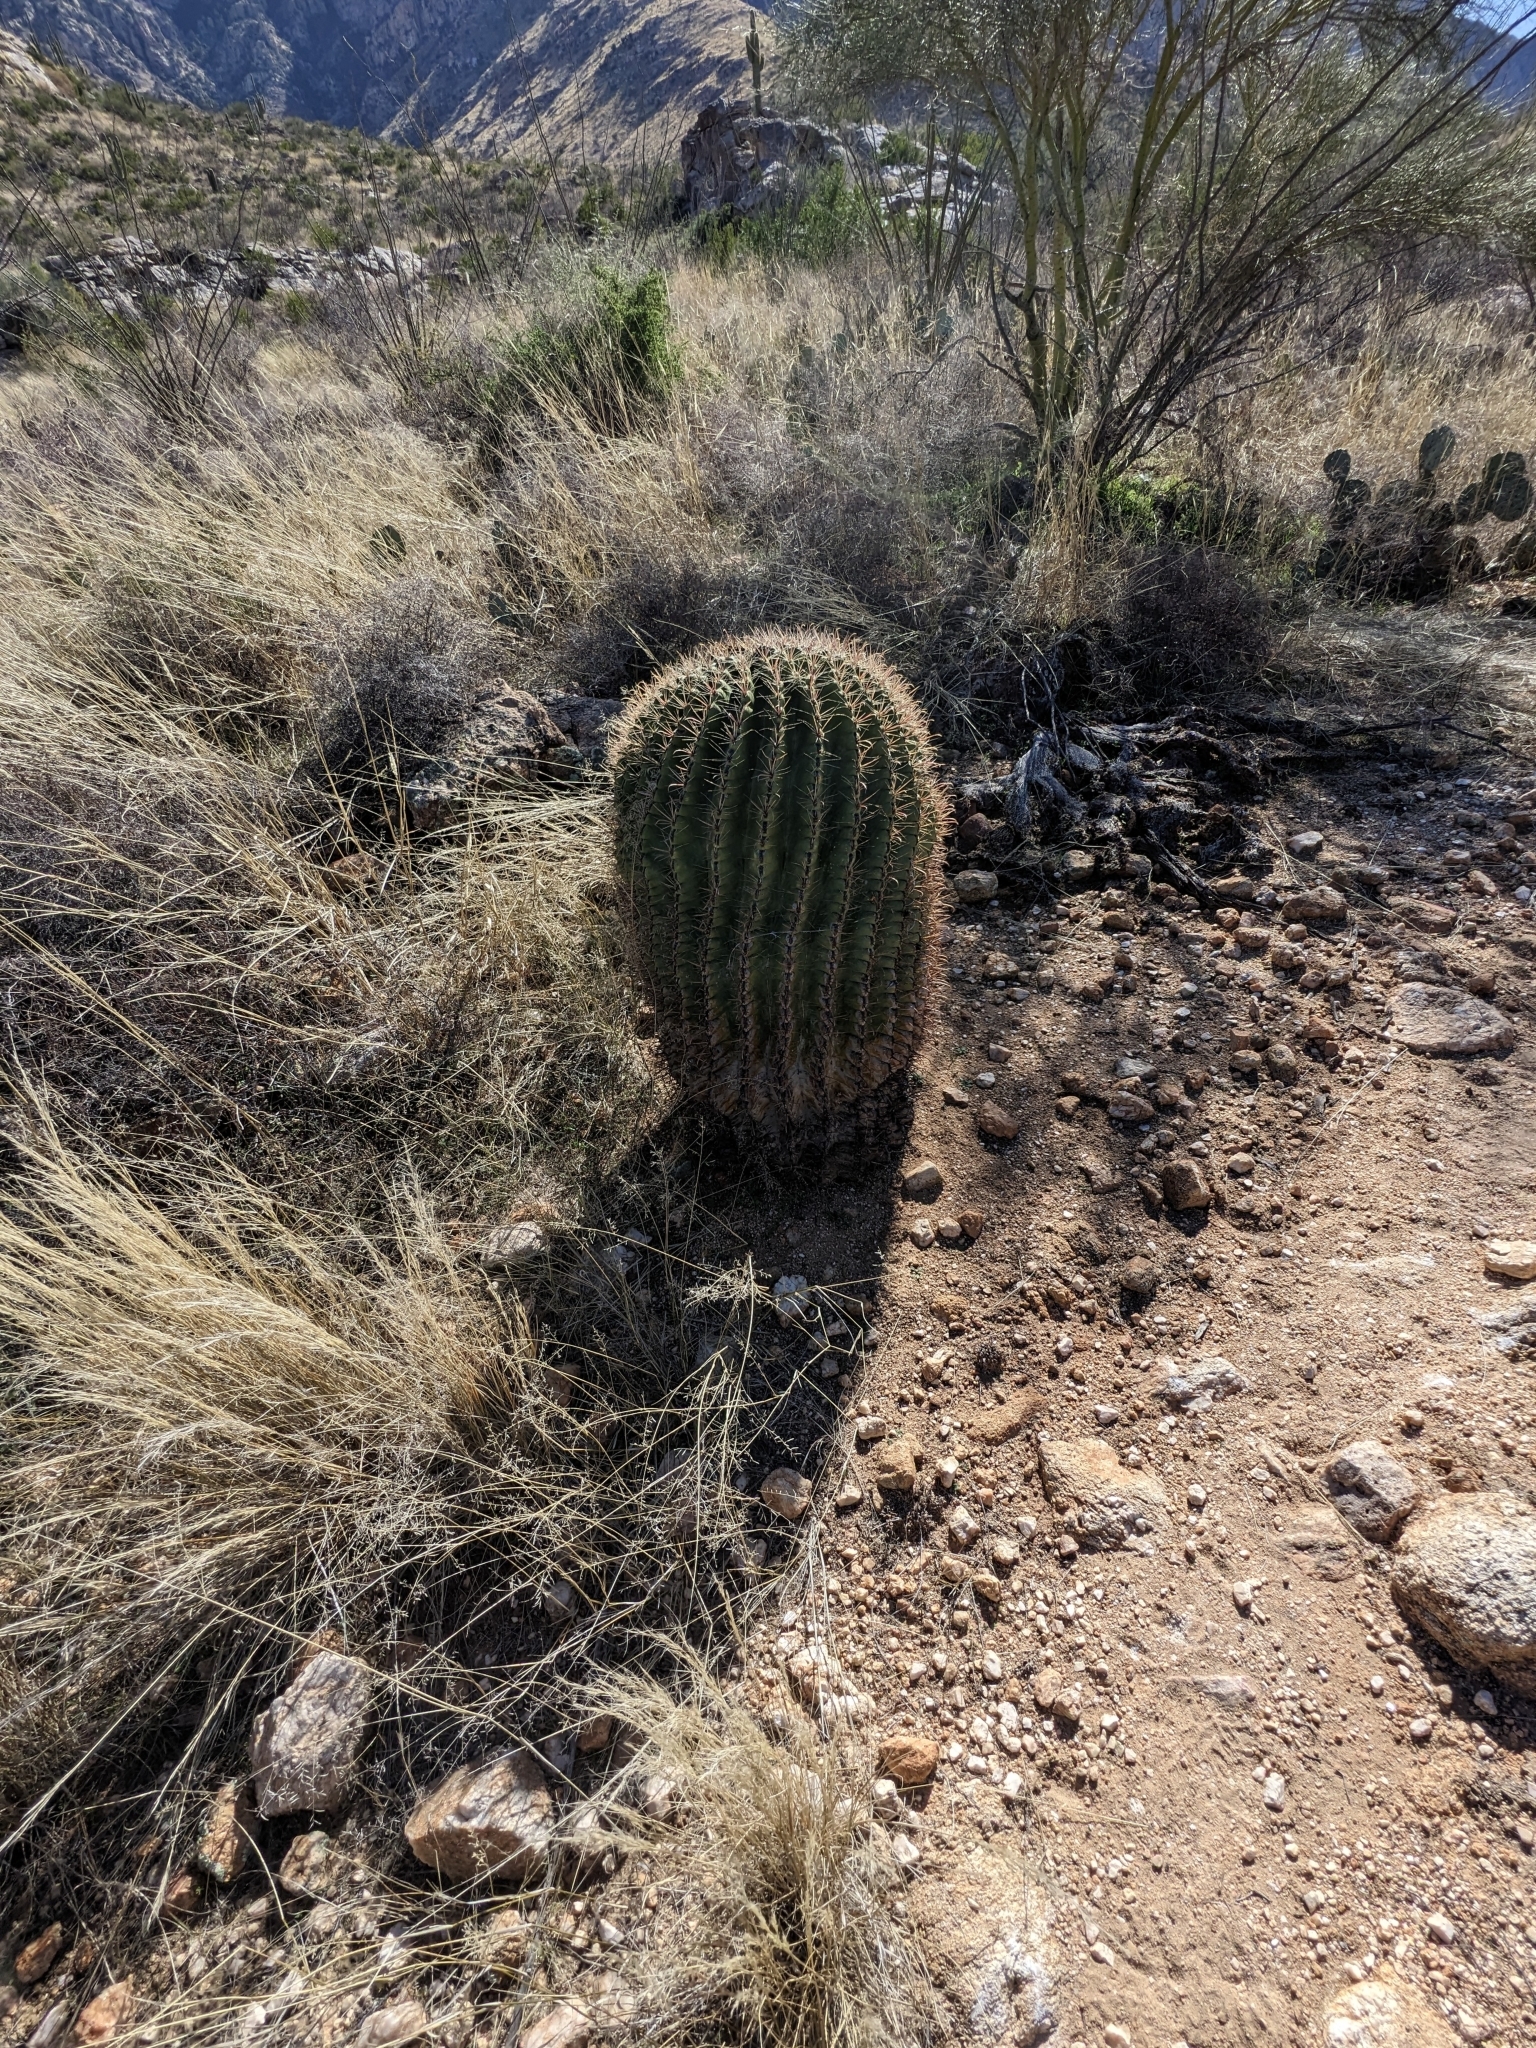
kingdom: Plantae
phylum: Tracheophyta
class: Magnoliopsida
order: Caryophyllales
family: Cactaceae
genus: Ferocactus
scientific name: Ferocactus wislizeni
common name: Candy barrel cactus
